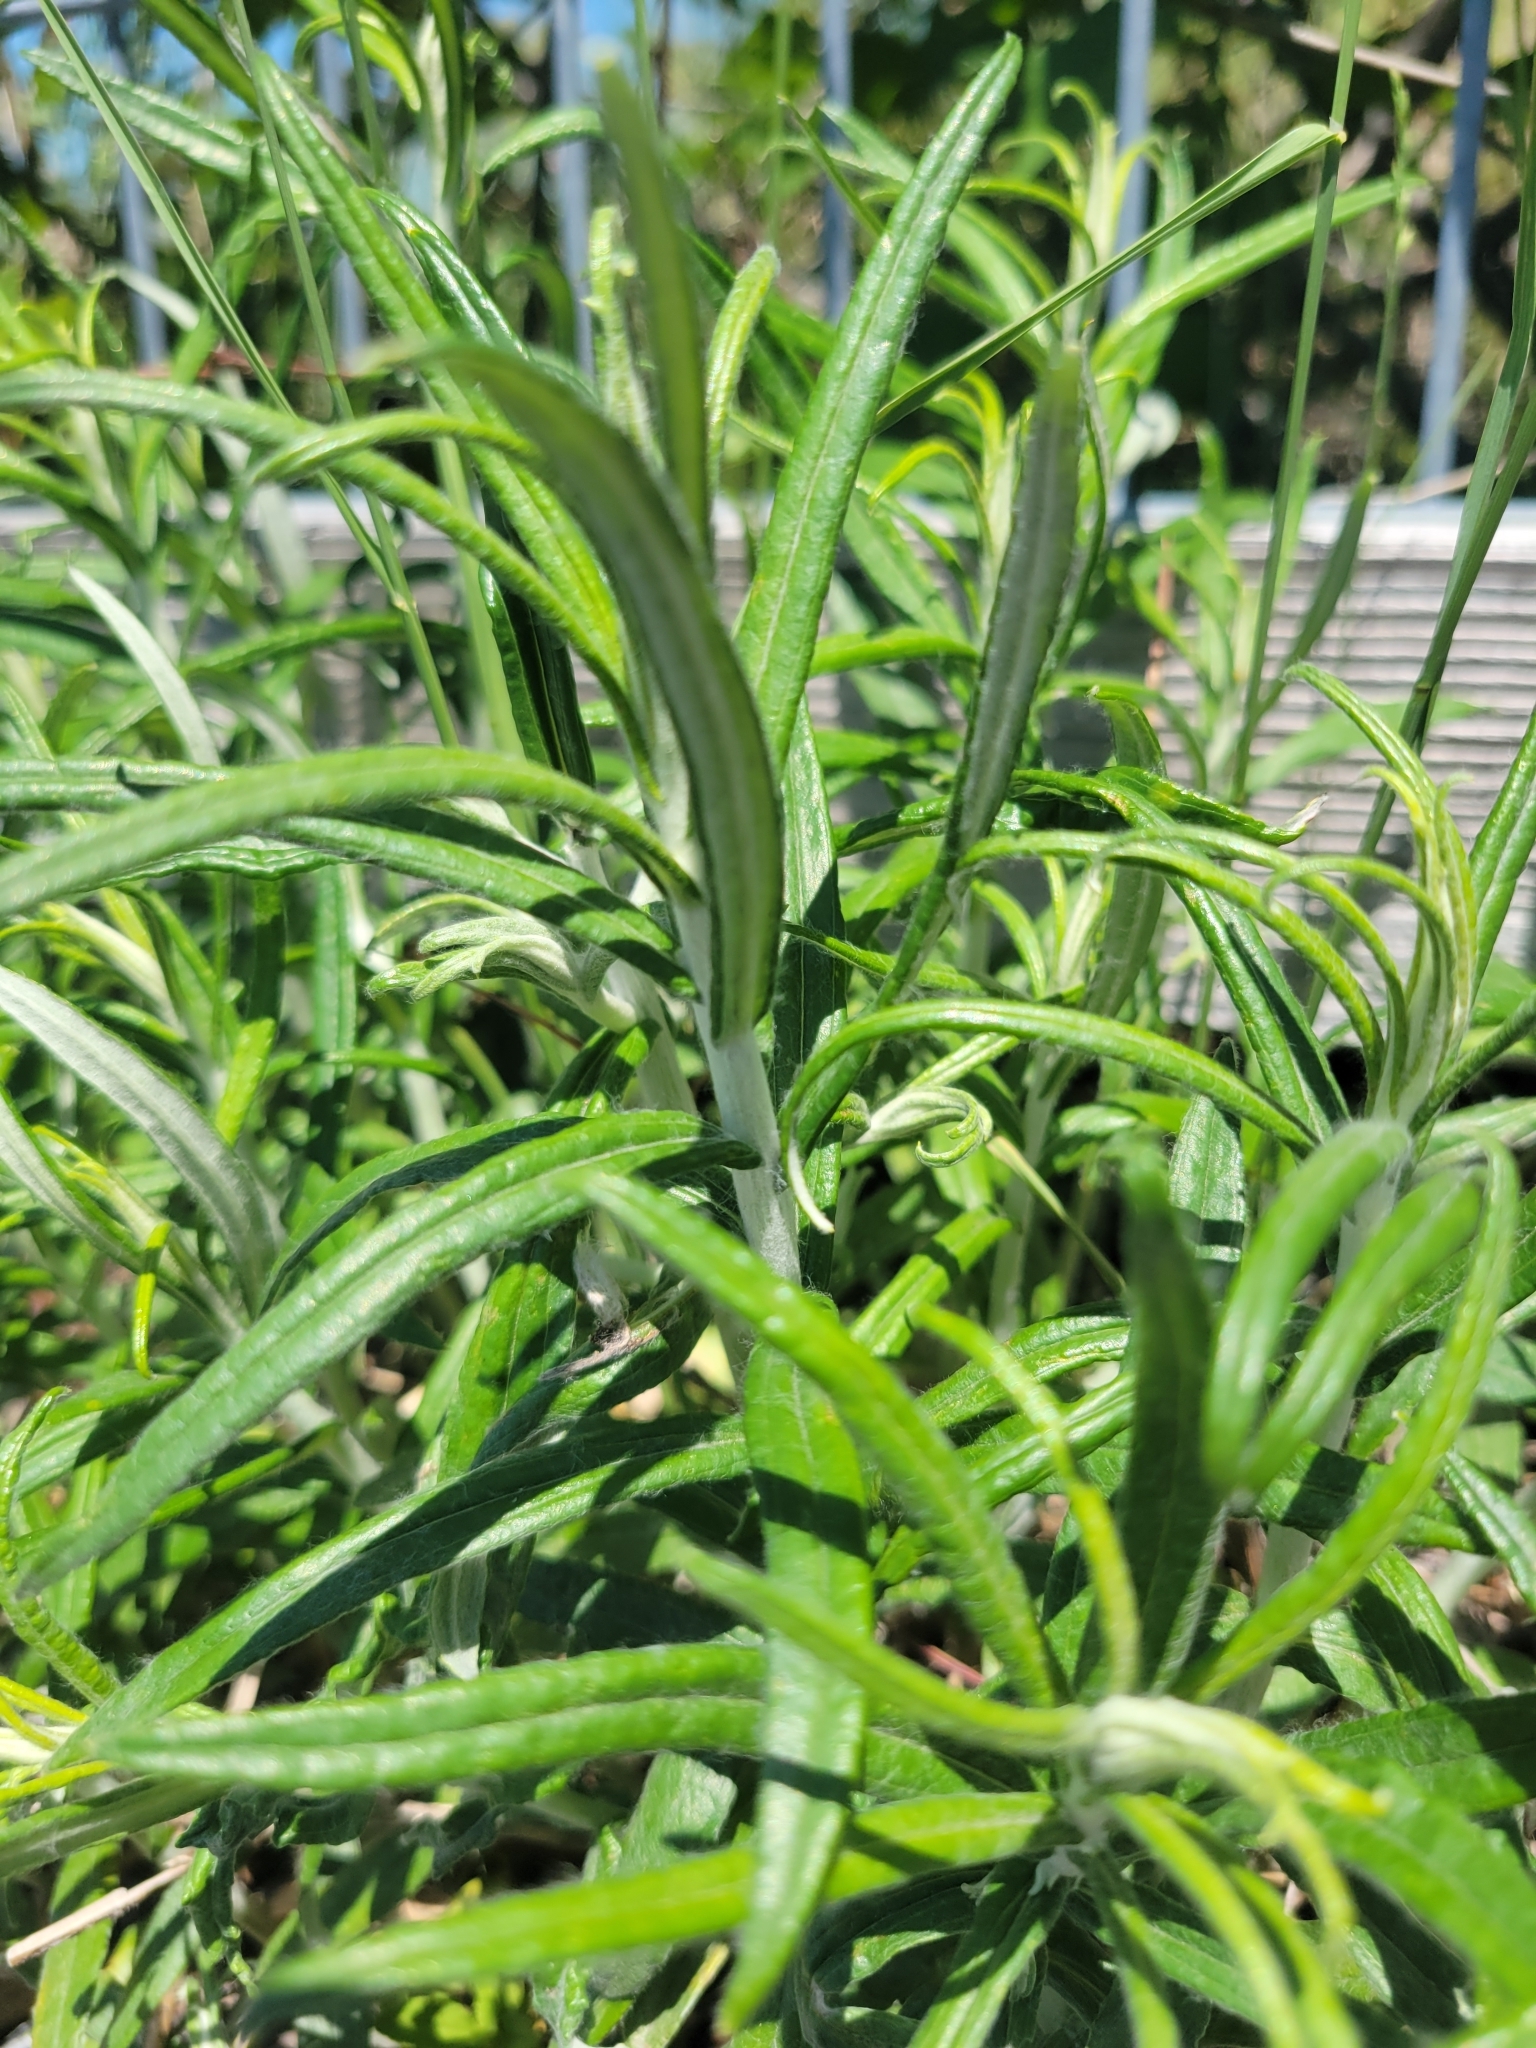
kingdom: Plantae
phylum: Tracheophyta
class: Magnoliopsida
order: Asterales
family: Asteraceae
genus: Anaphalis
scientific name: Anaphalis margaritacea
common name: Pearly everlasting
